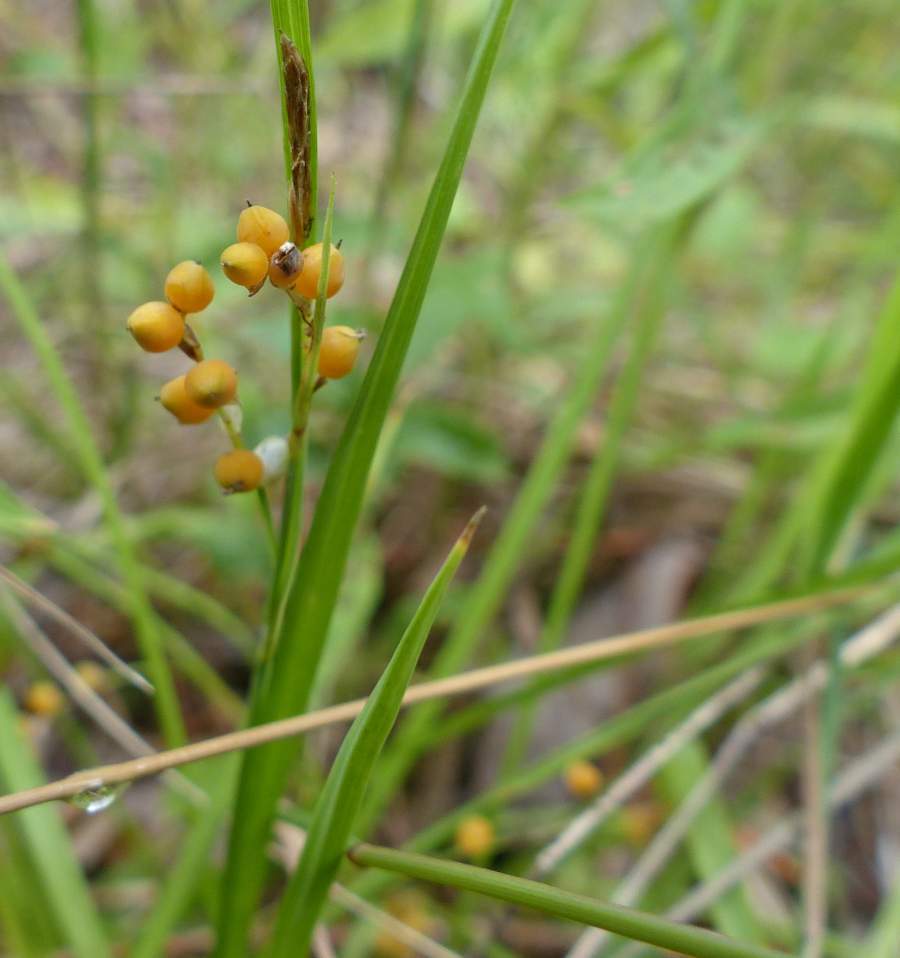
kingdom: Plantae
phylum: Tracheophyta
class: Liliopsida
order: Poales
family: Cyperaceae
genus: Carex
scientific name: Carex aurea
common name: Golden sedge
